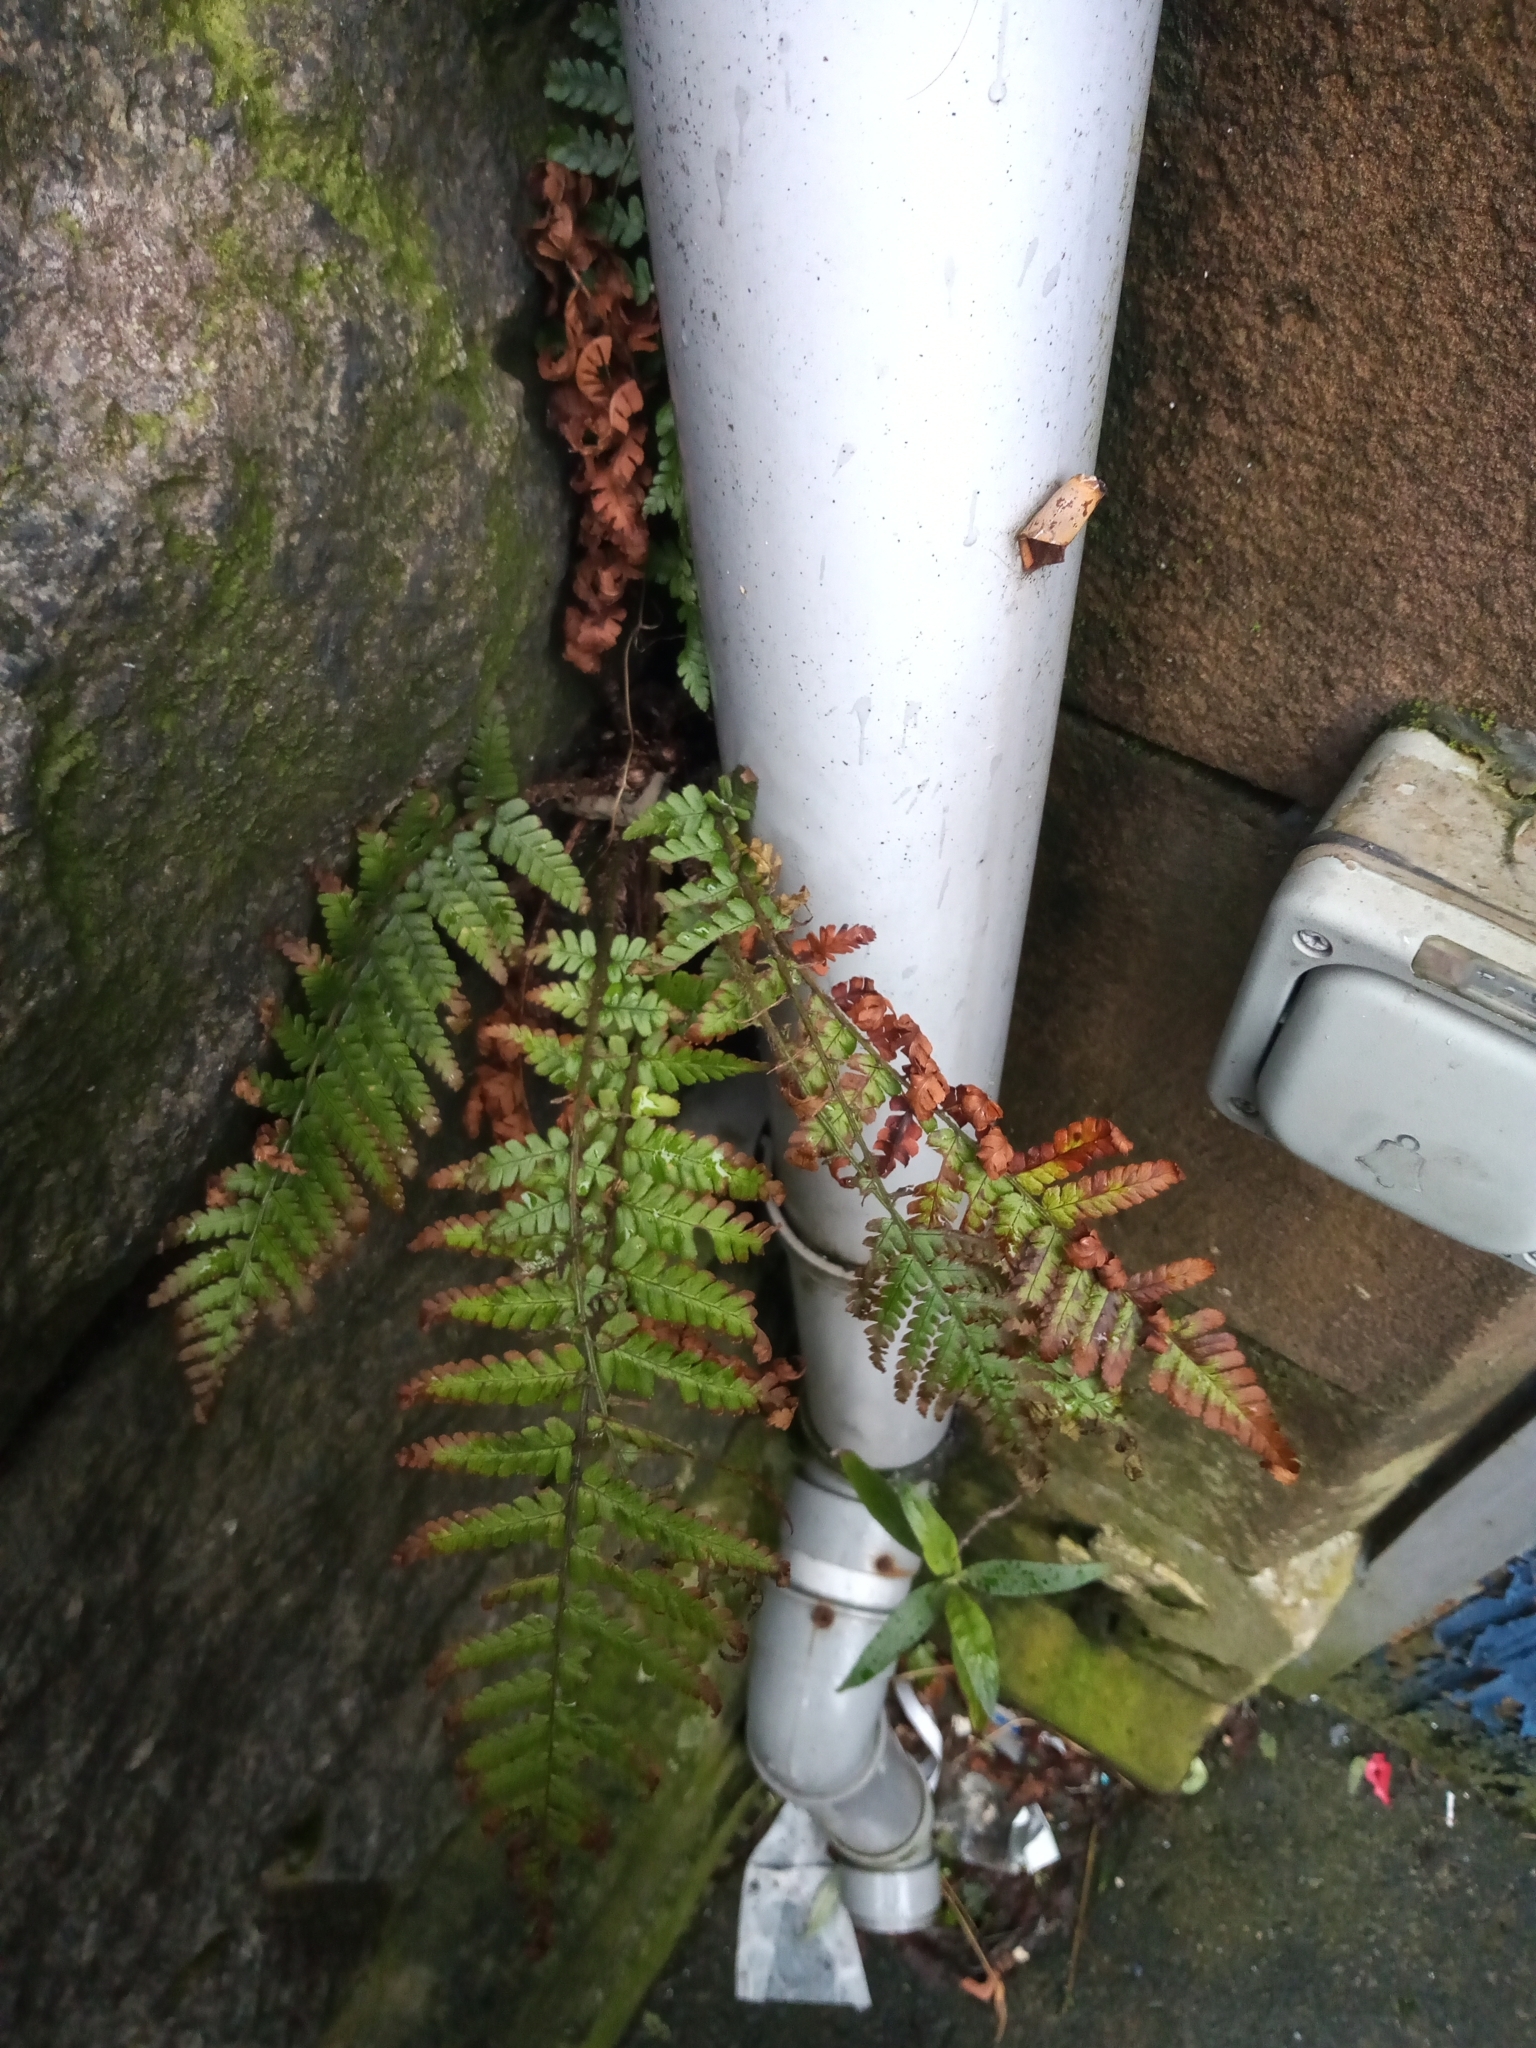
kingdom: Plantae
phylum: Tracheophyta
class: Polypodiopsida
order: Polypodiales
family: Dryopteridaceae
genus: Dryopteris
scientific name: Dryopteris
